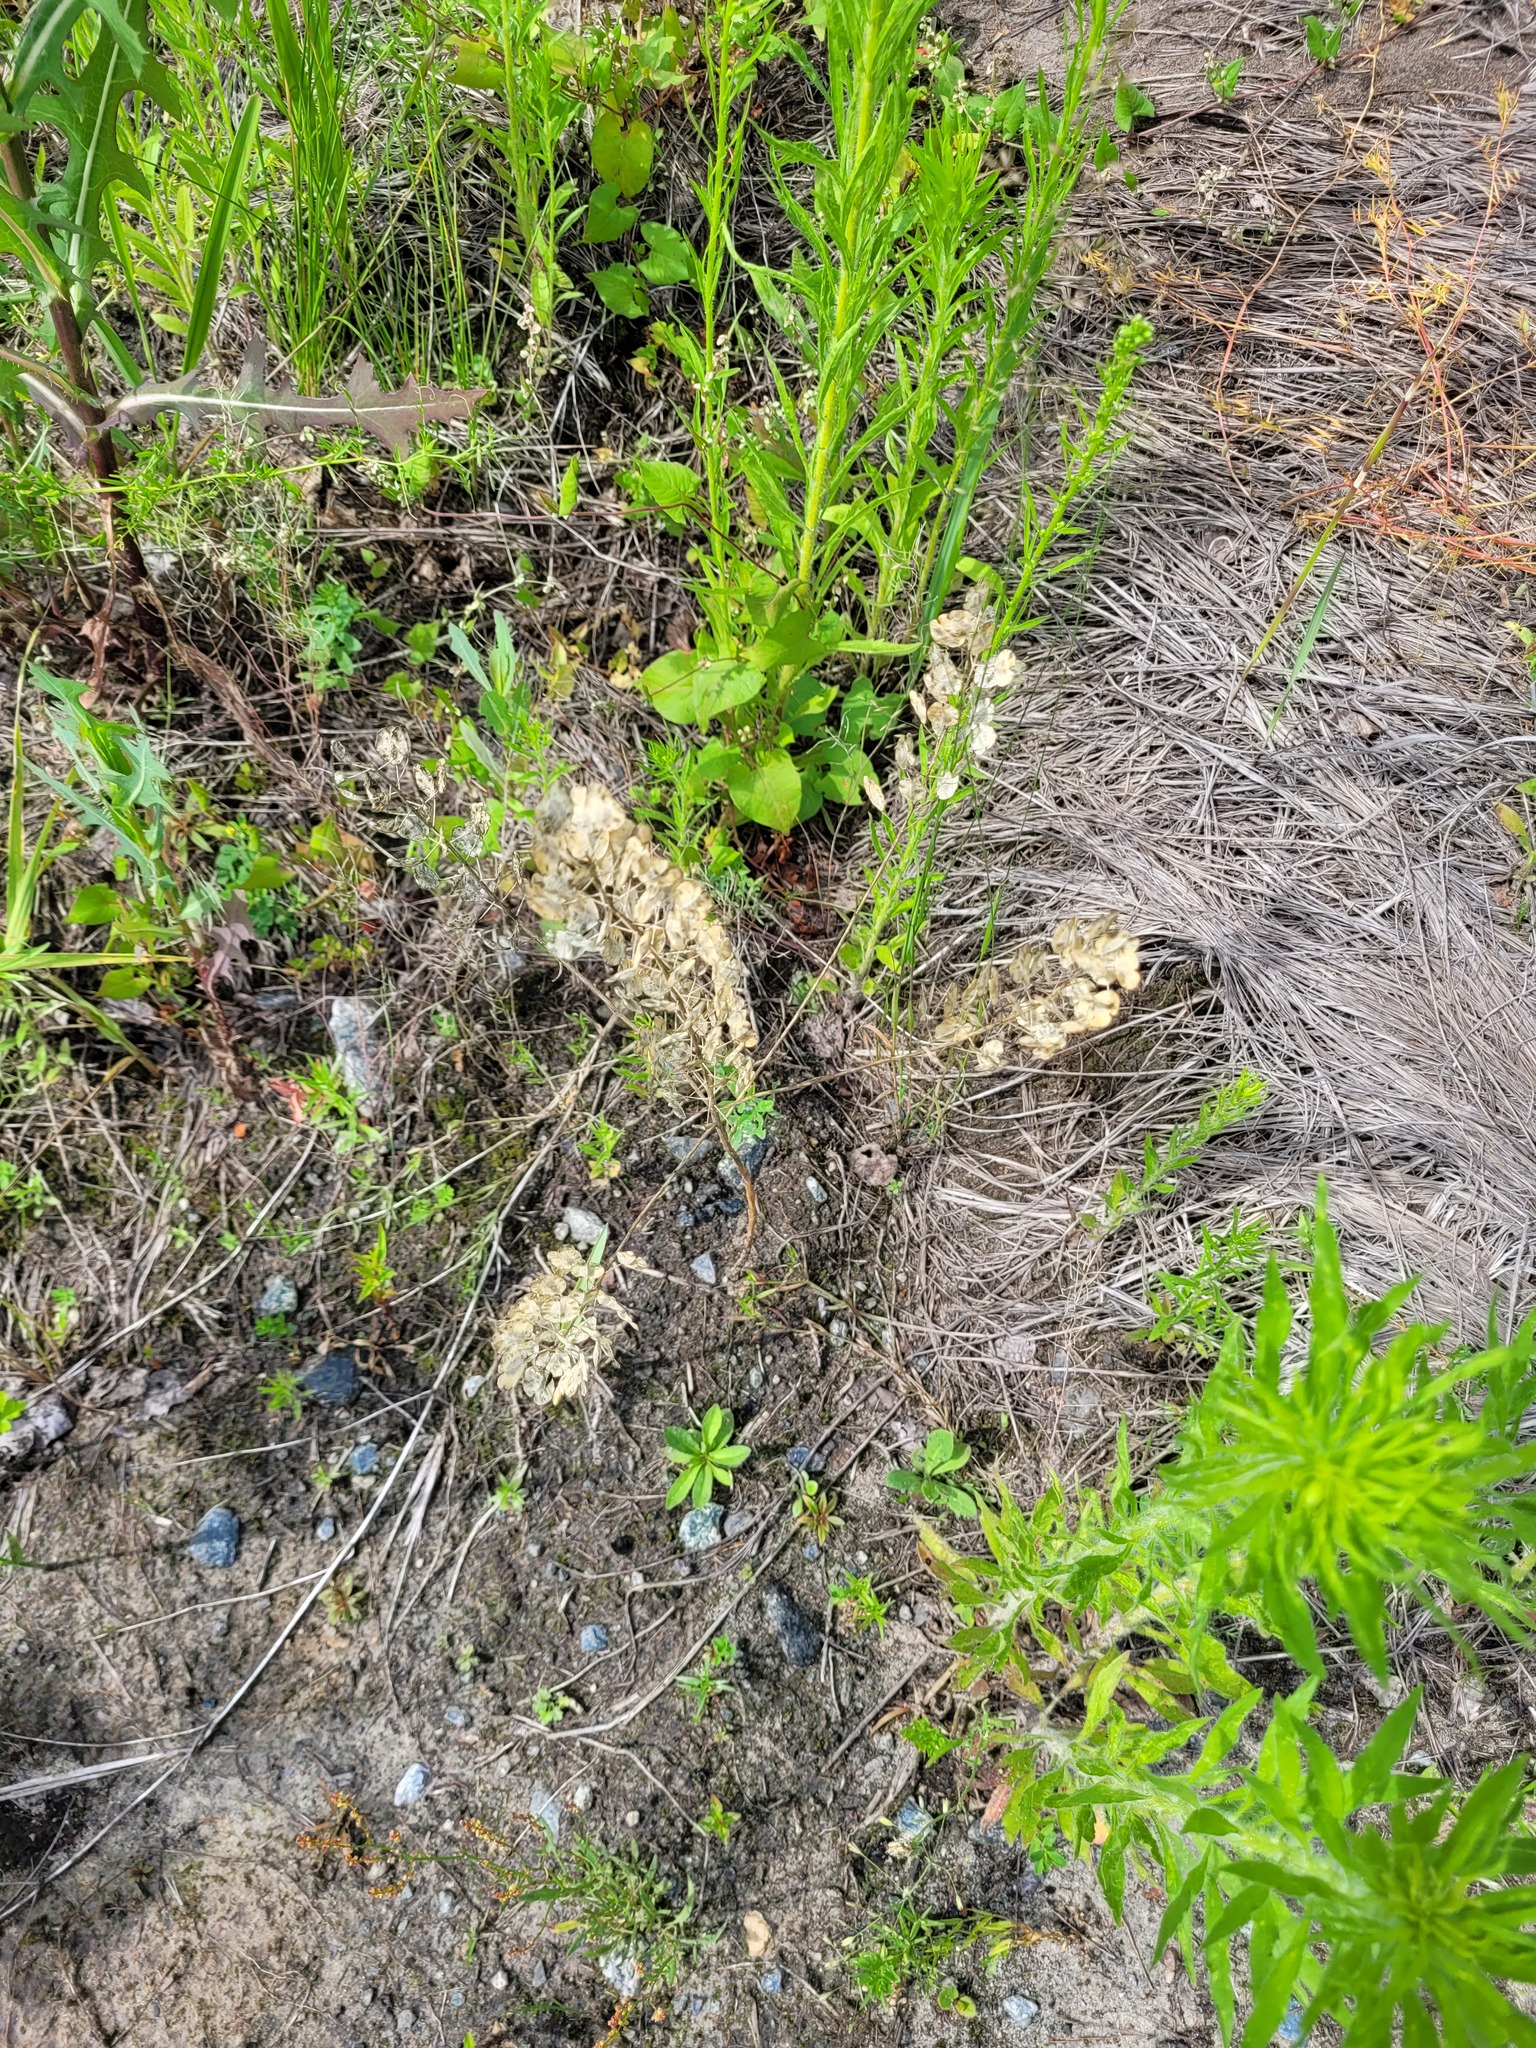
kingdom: Plantae
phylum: Tracheophyta
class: Magnoliopsida
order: Brassicales
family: Brassicaceae
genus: Thlaspi
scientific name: Thlaspi arvense
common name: Field pennycress
